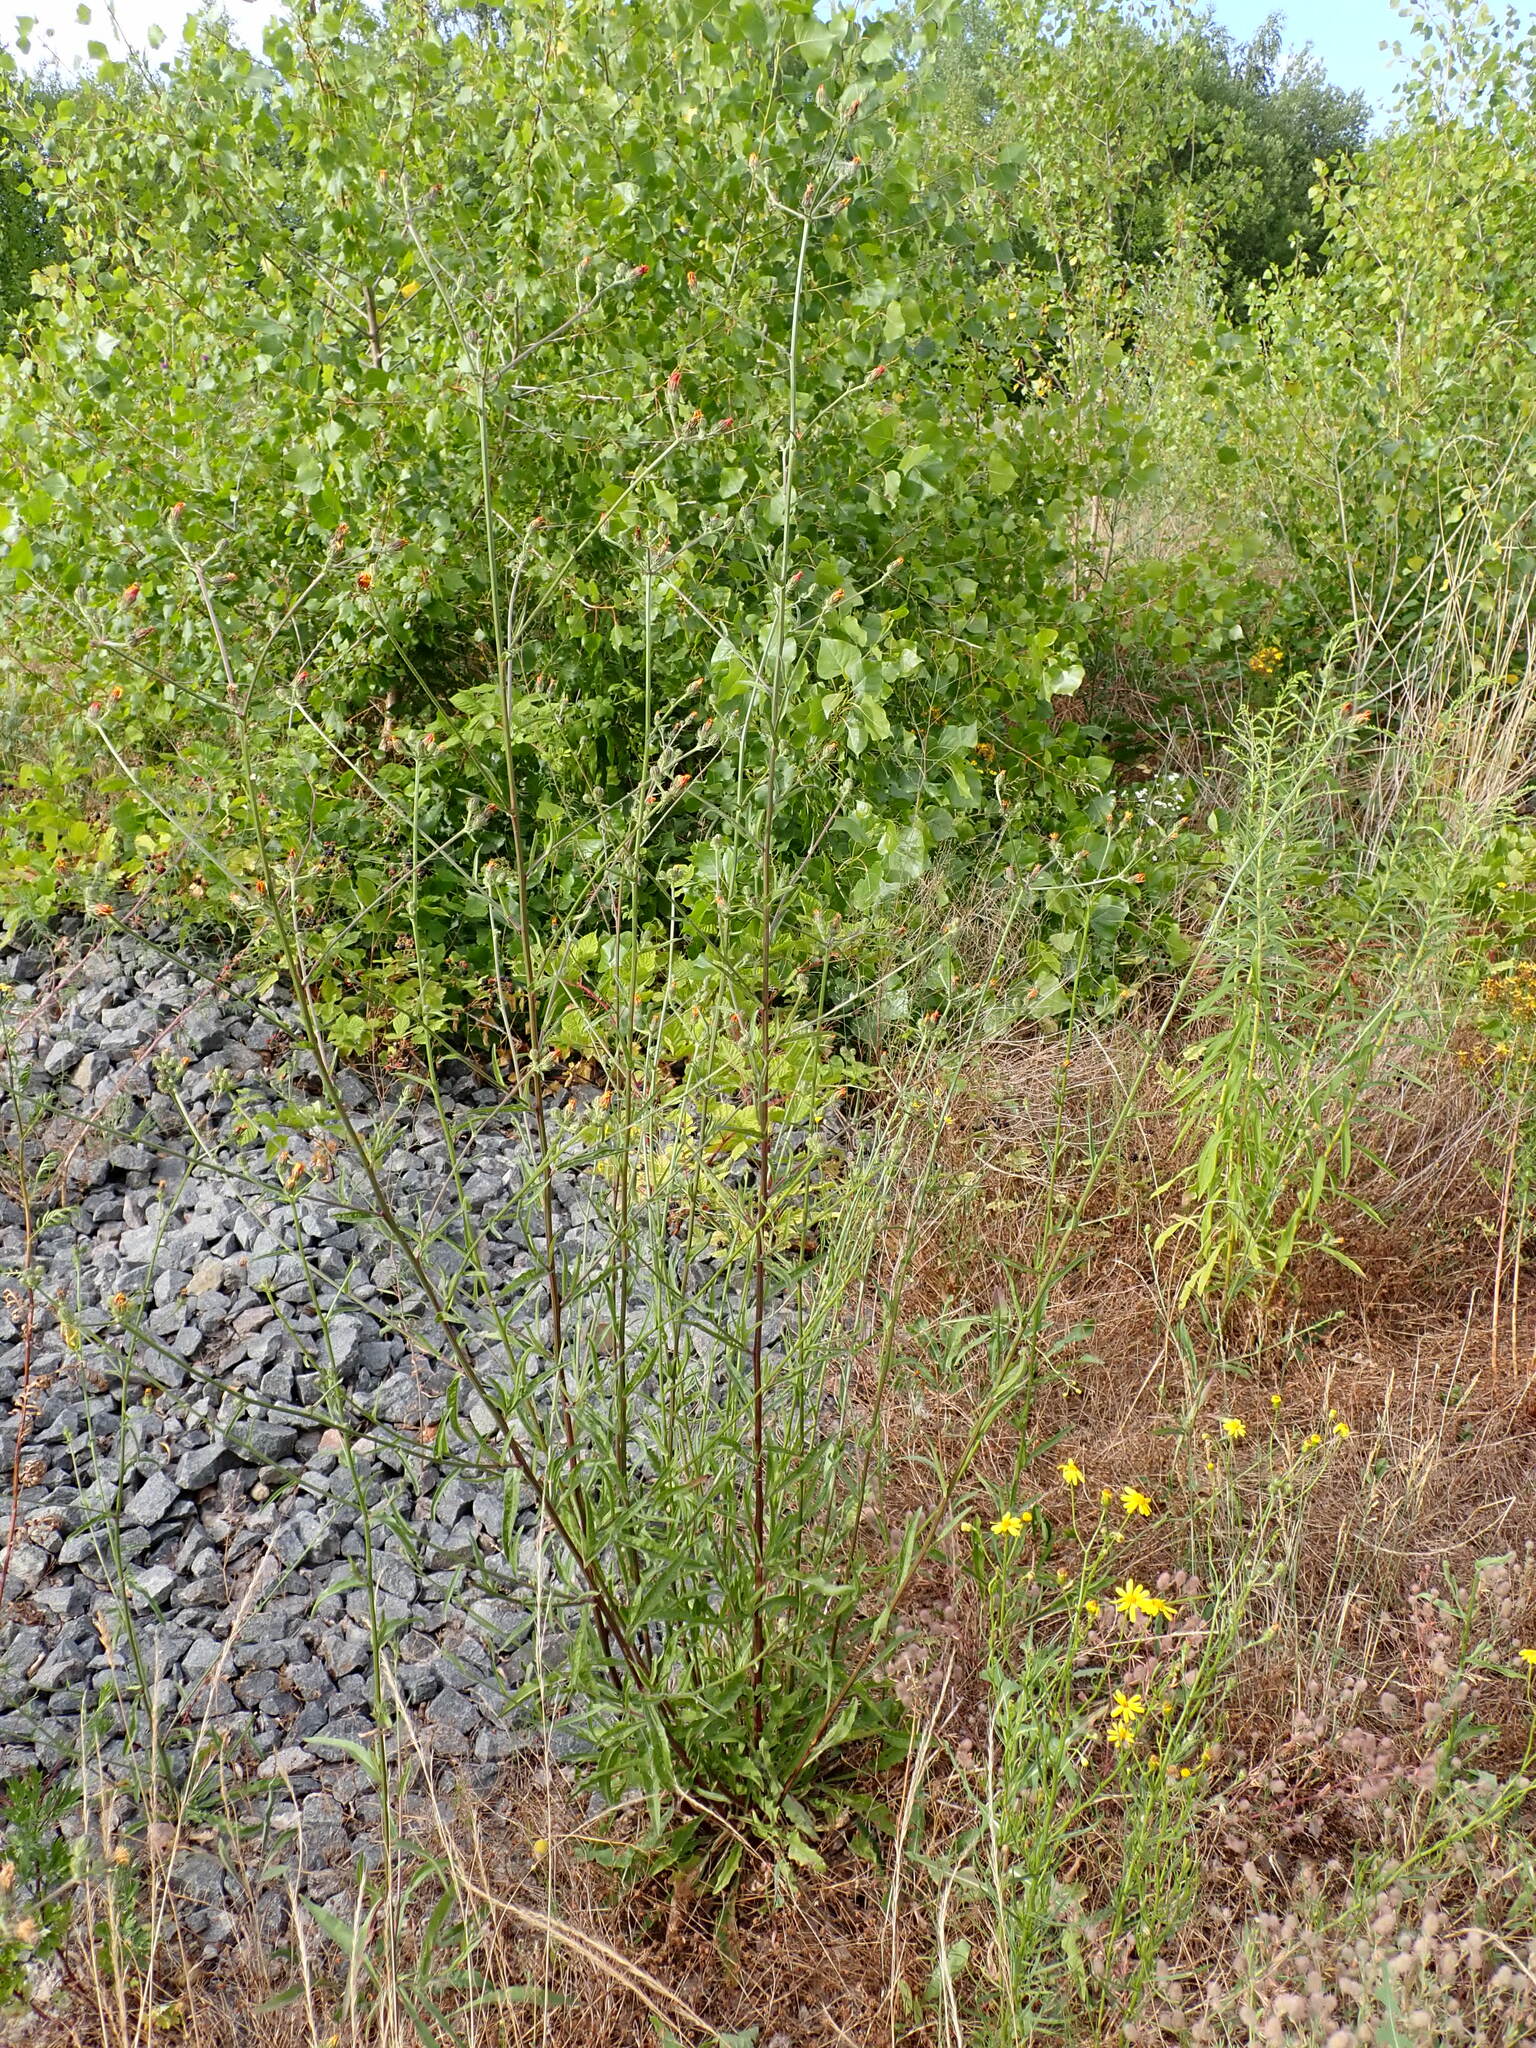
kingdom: Plantae
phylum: Tracheophyta
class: Magnoliopsida
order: Asterales
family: Asteraceae
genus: Picris
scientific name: Picris hieracioides
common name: Hawkweed oxtongue
